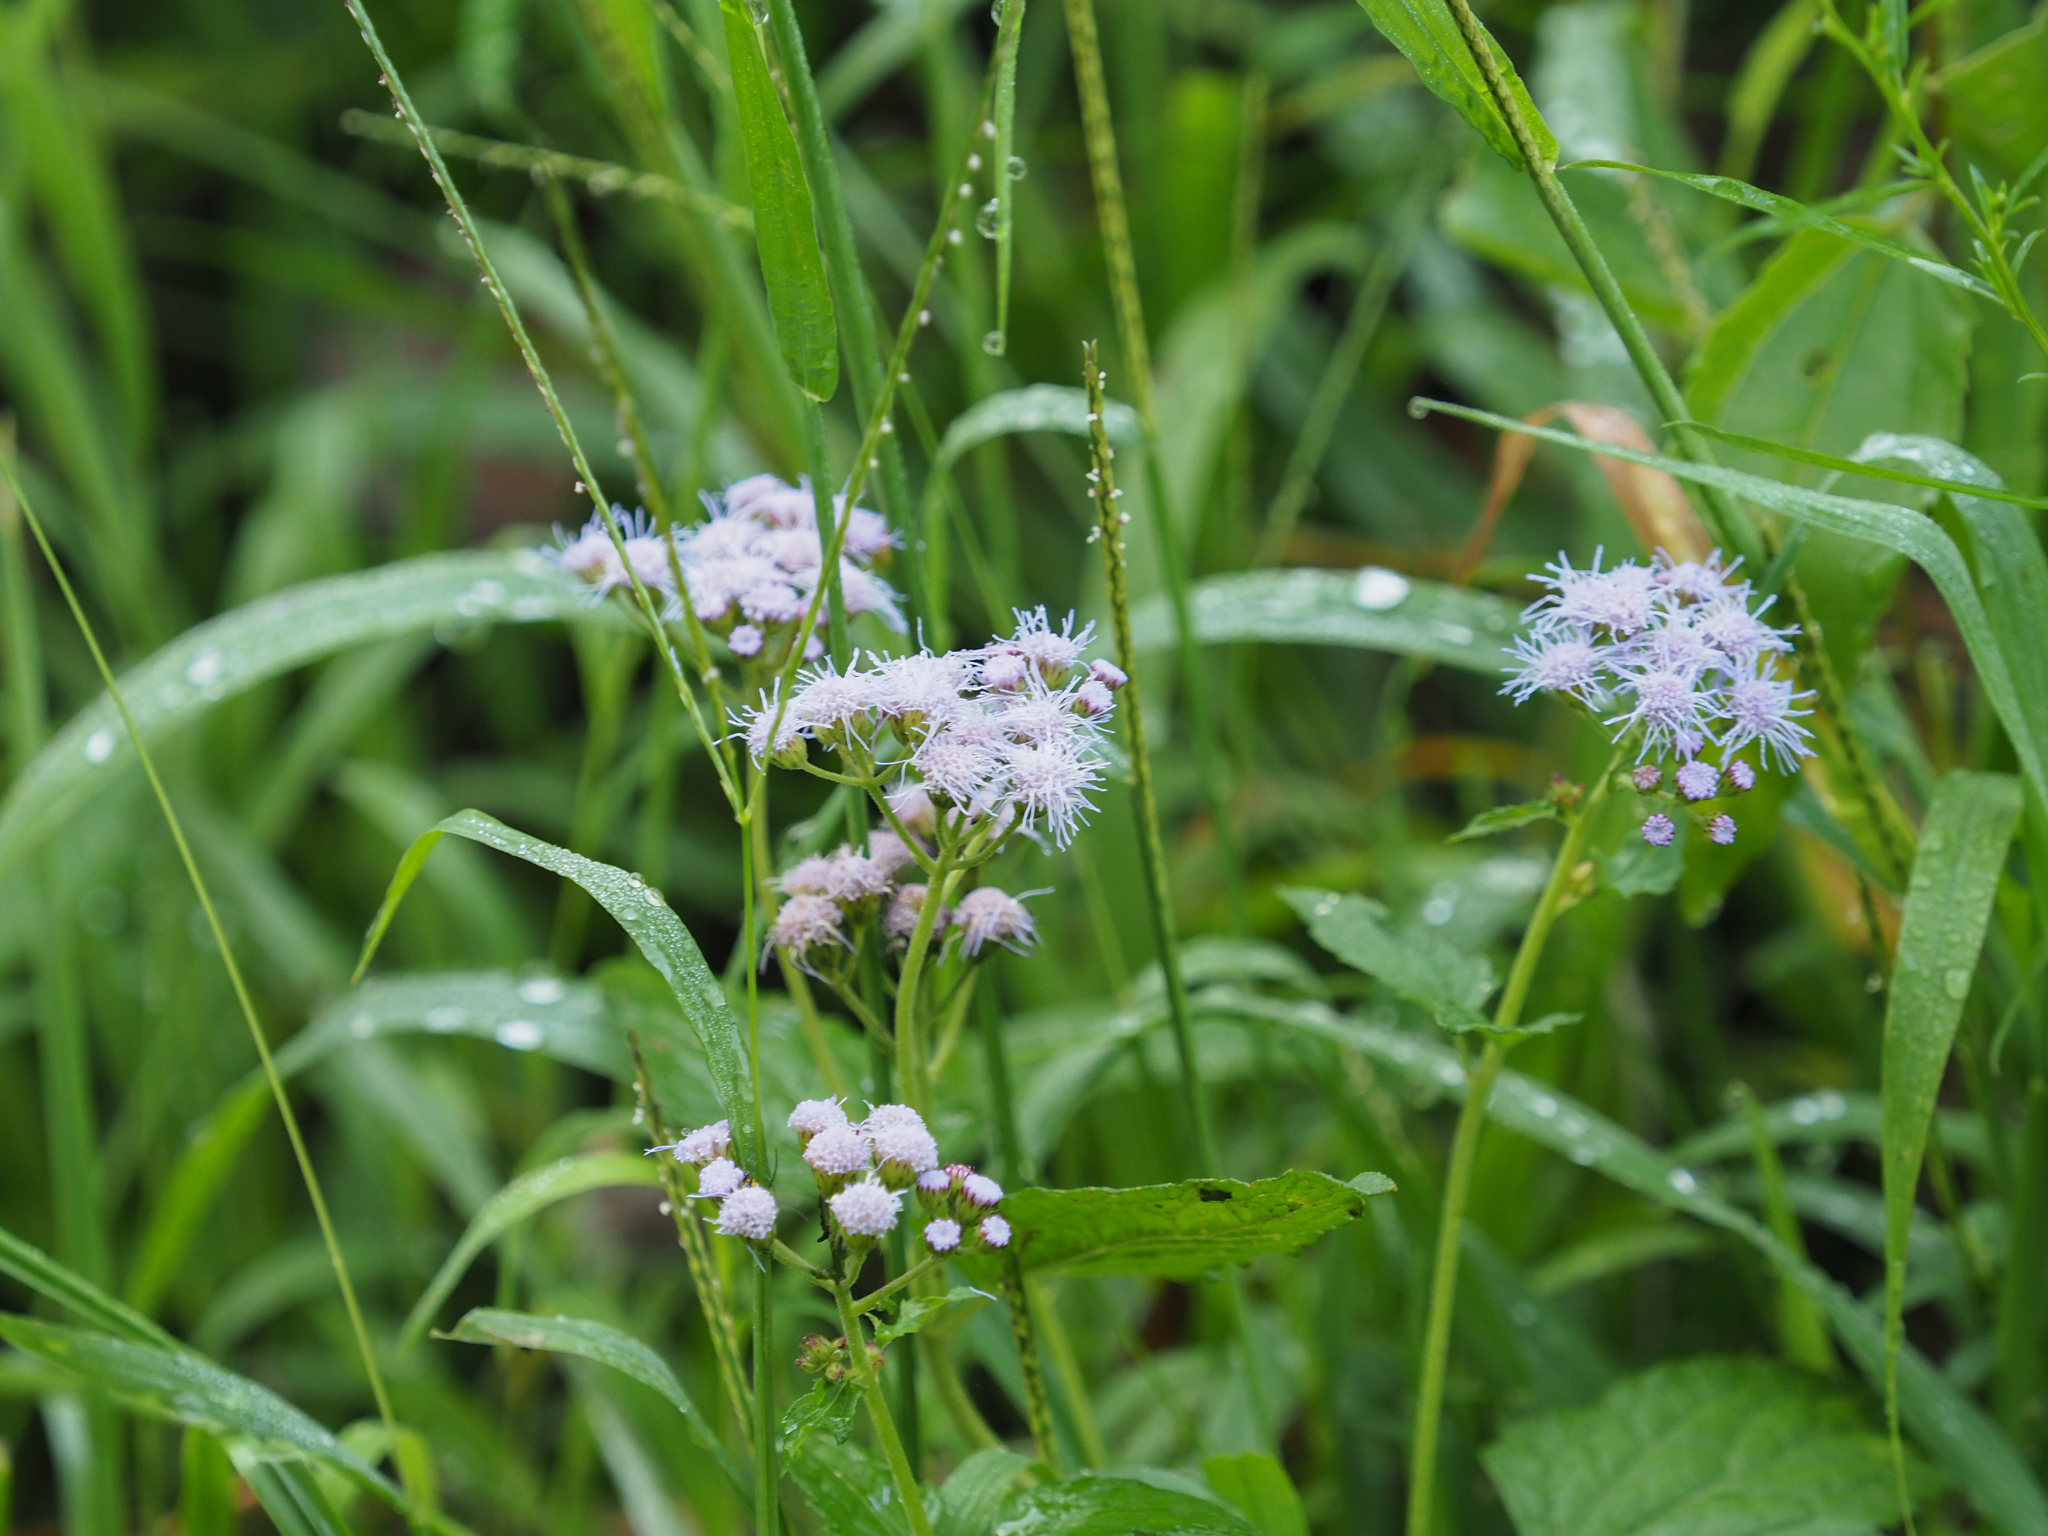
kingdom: Plantae
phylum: Tracheophyta
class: Magnoliopsida
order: Asterales
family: Asteraceae
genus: Conoclinium
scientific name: Conoclinium coelestinum
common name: Blue mistflower
